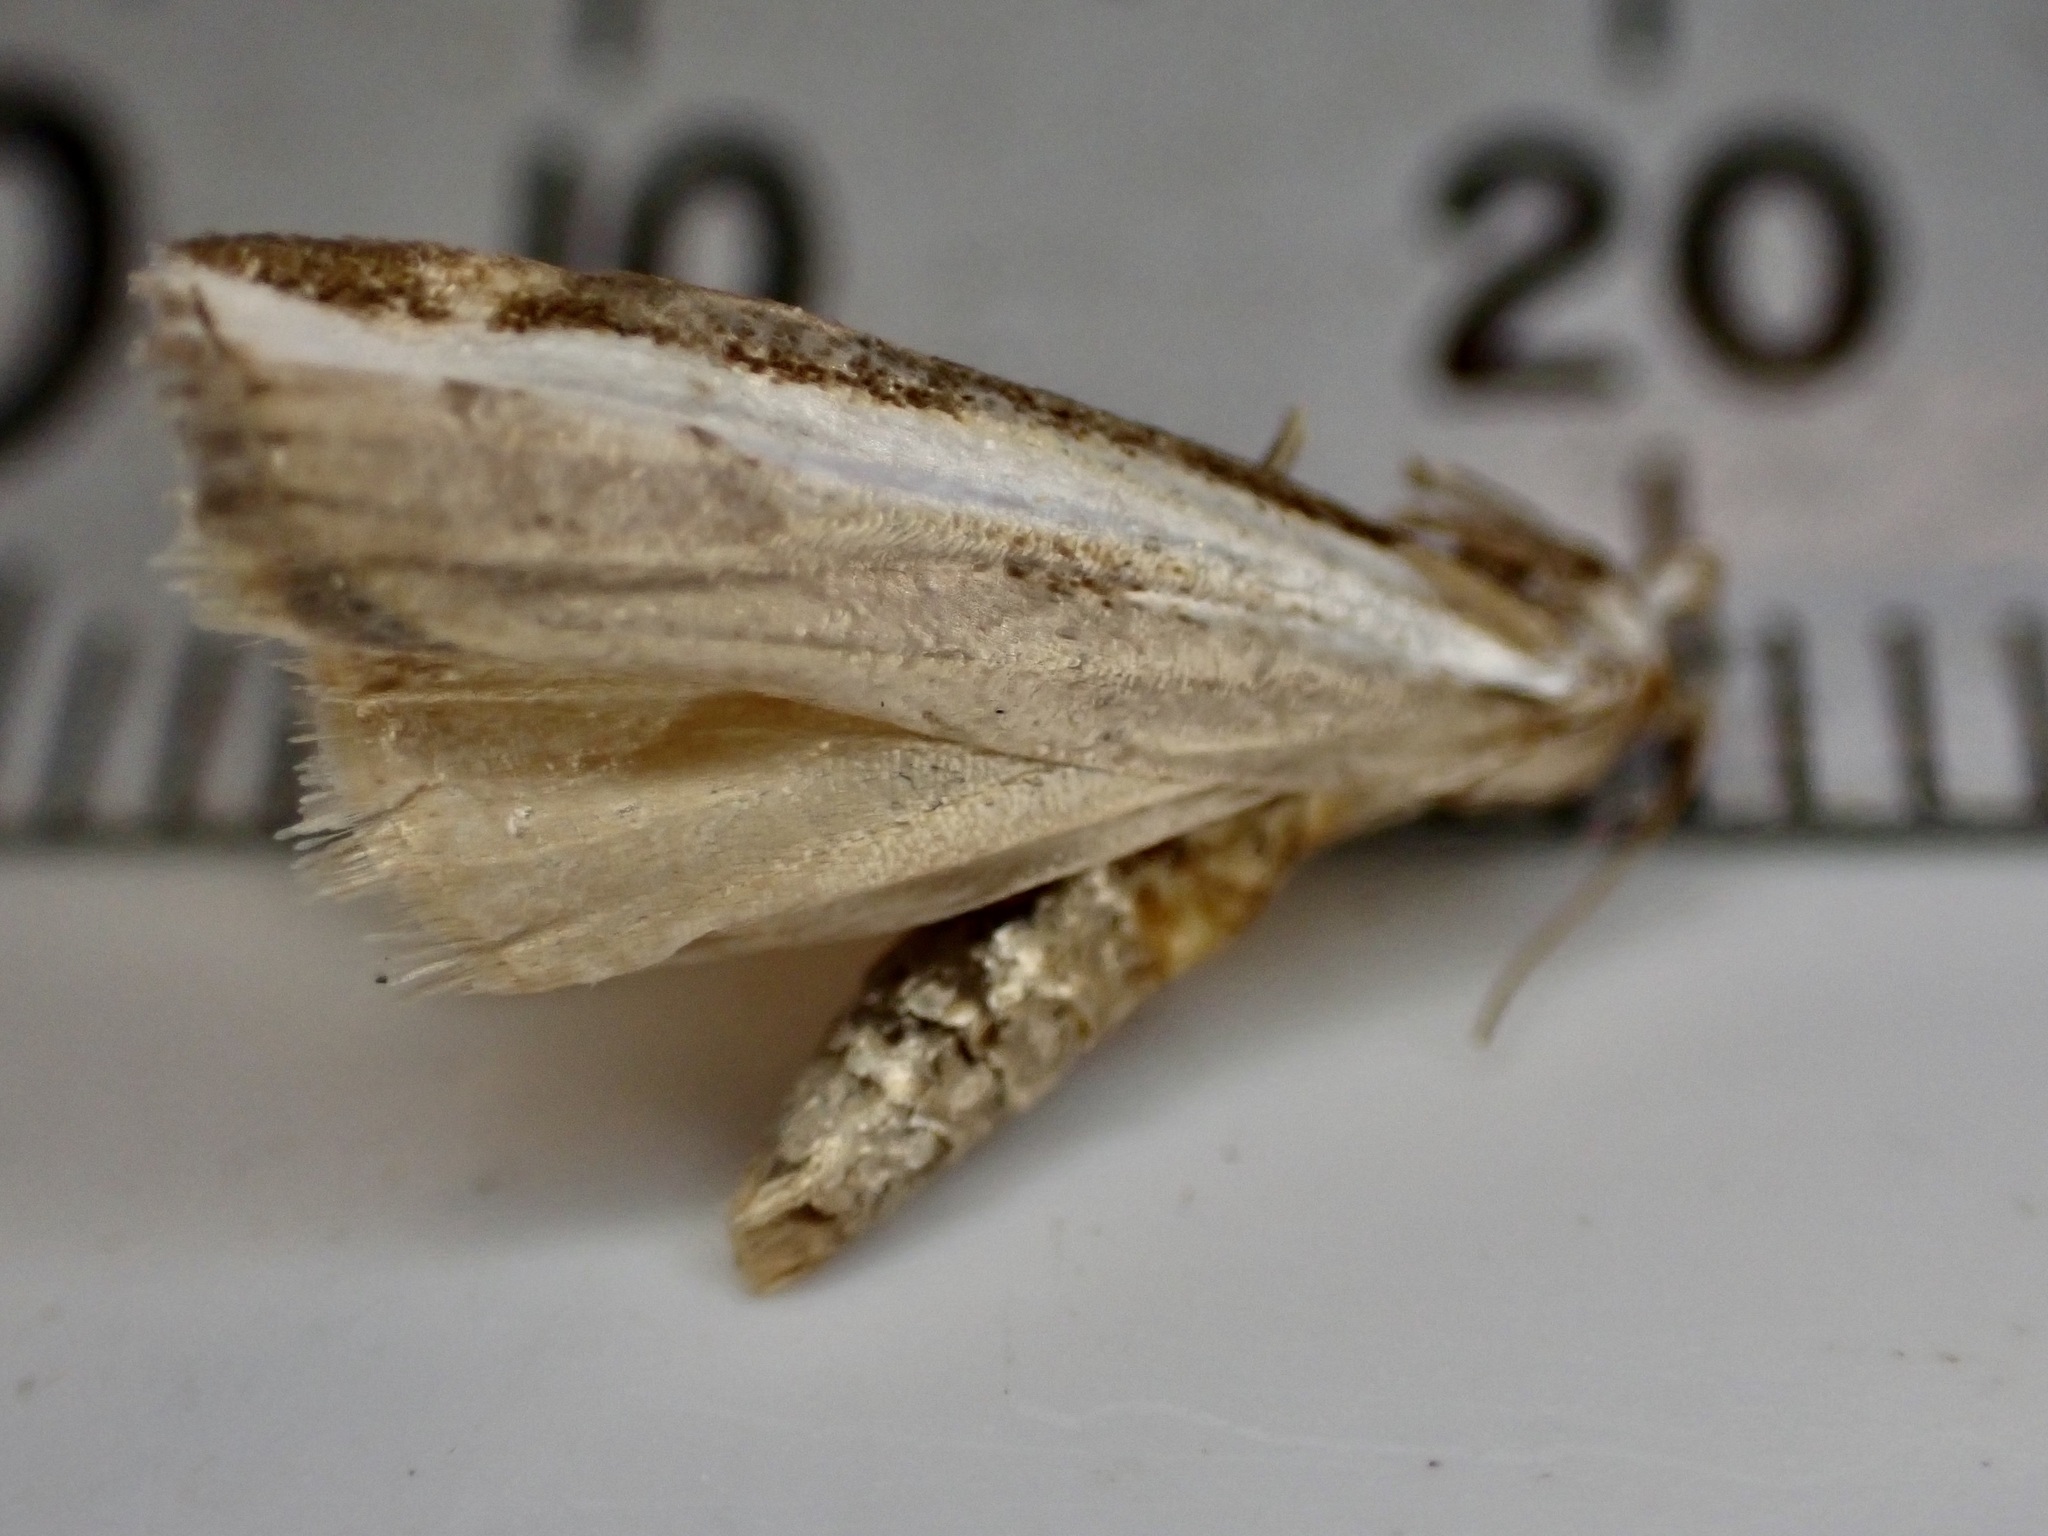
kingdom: Animalia
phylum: Arthropoda
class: Insecta
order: Lepidoptera
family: Crambidae
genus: Orocrambus
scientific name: Orocrambus flexuosellus
